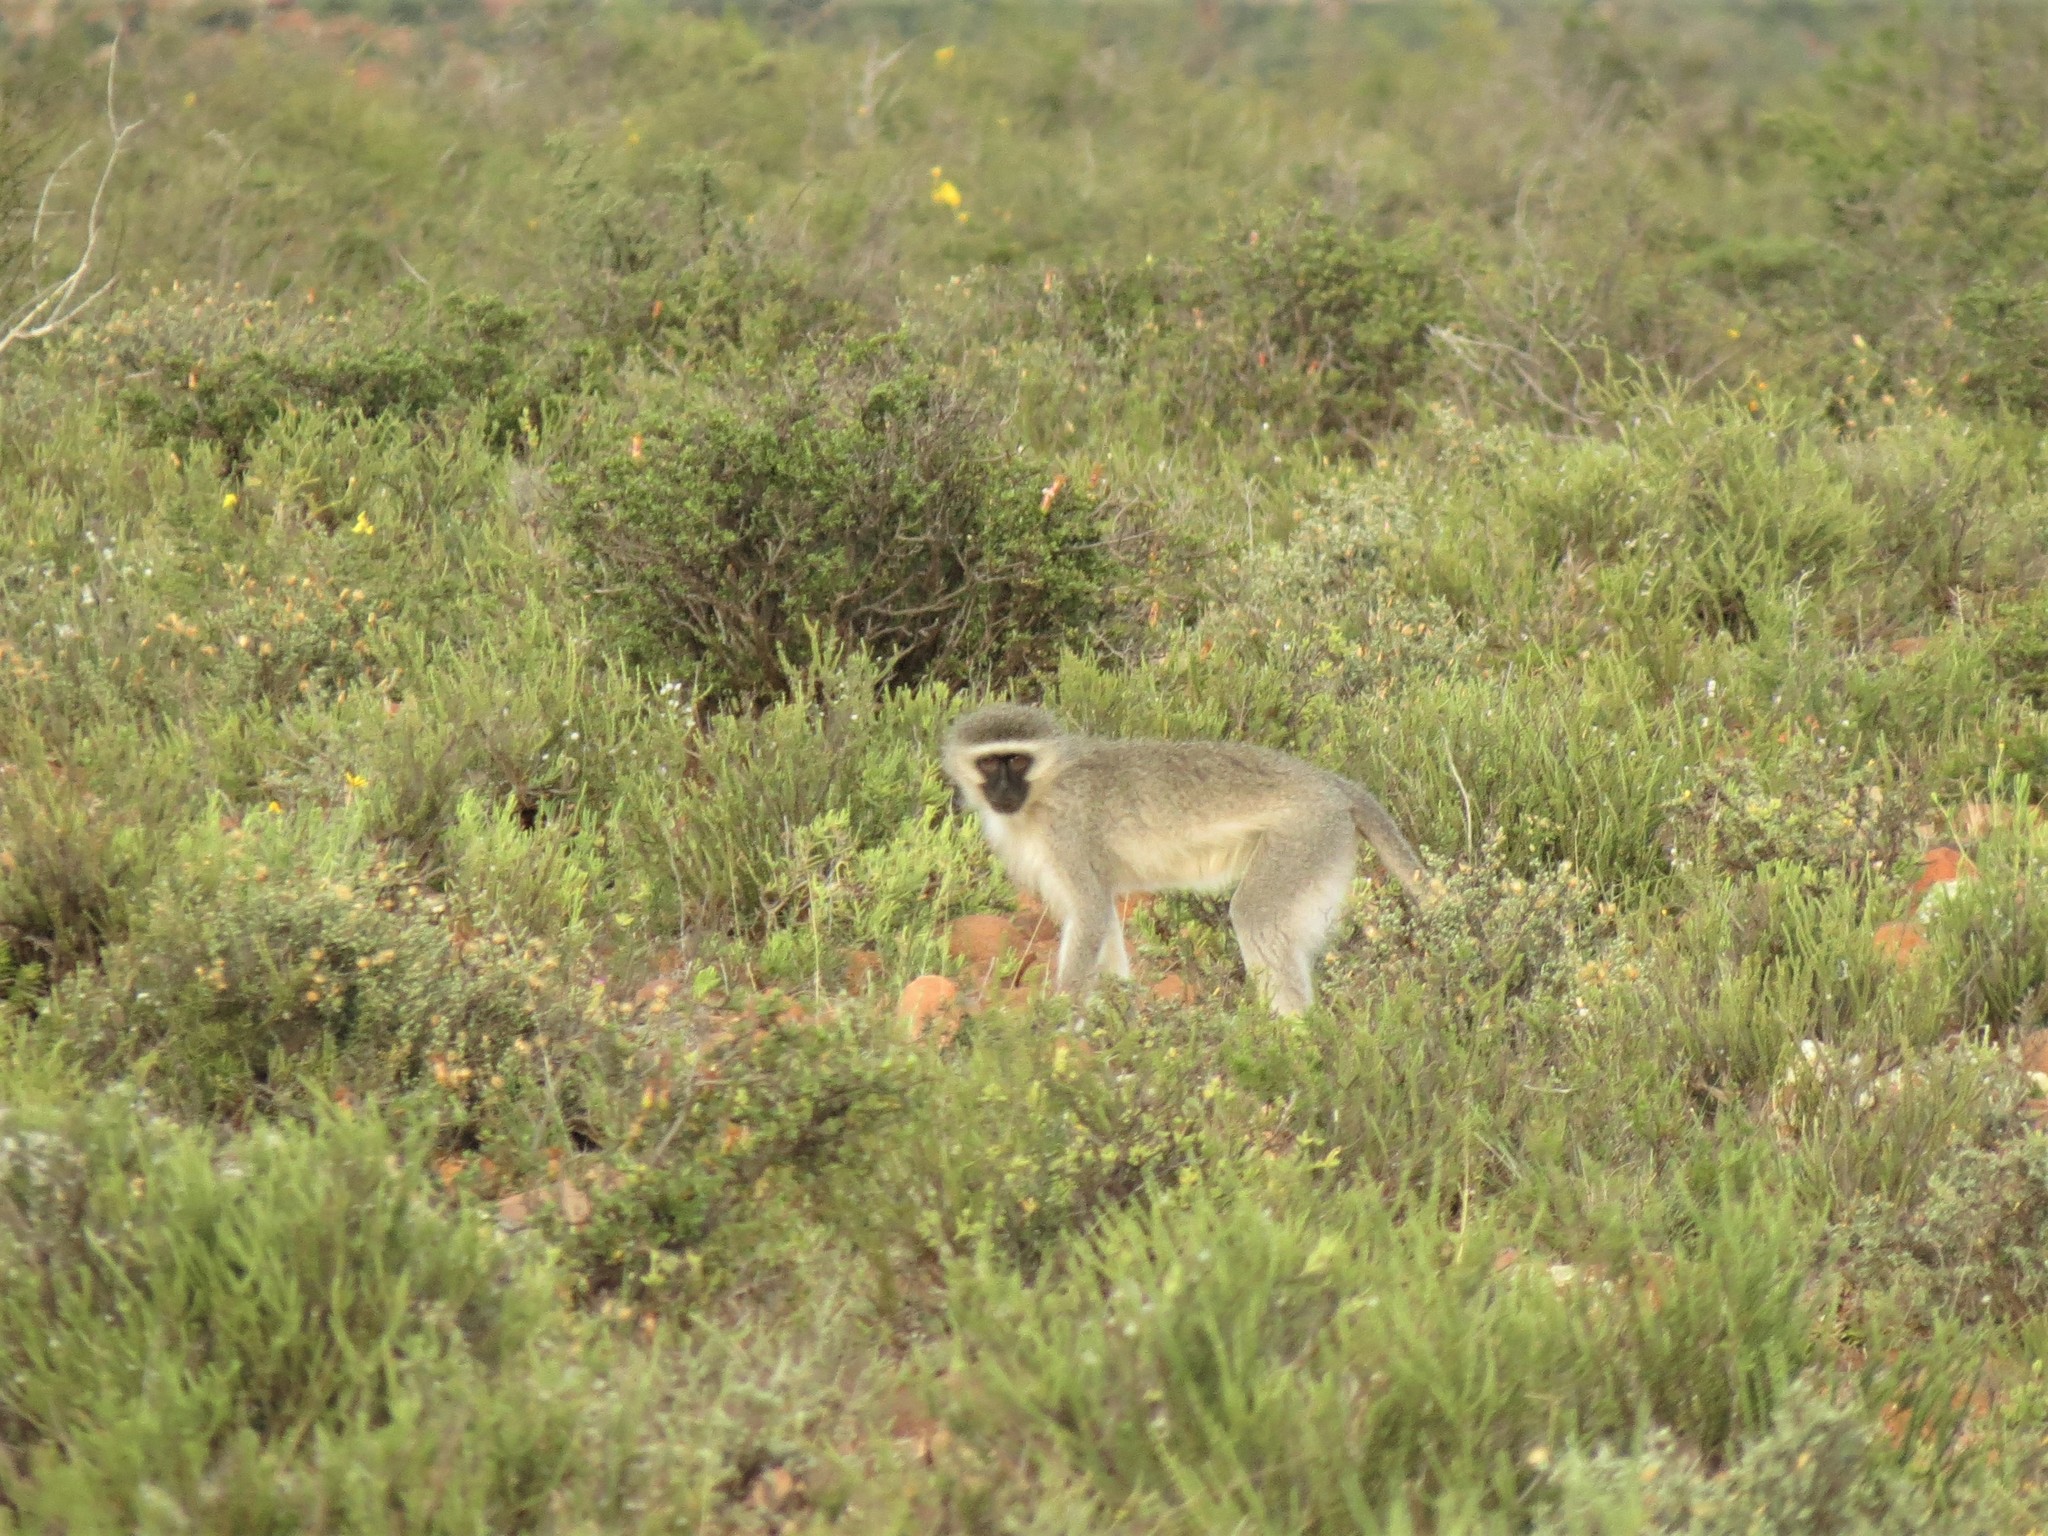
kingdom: Animalia
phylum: Chordata
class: Mammalia
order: Primates
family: Cercopithecidae
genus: Chlorocebus
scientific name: Chlorocebus pygerythrus
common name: Vervet monkey
